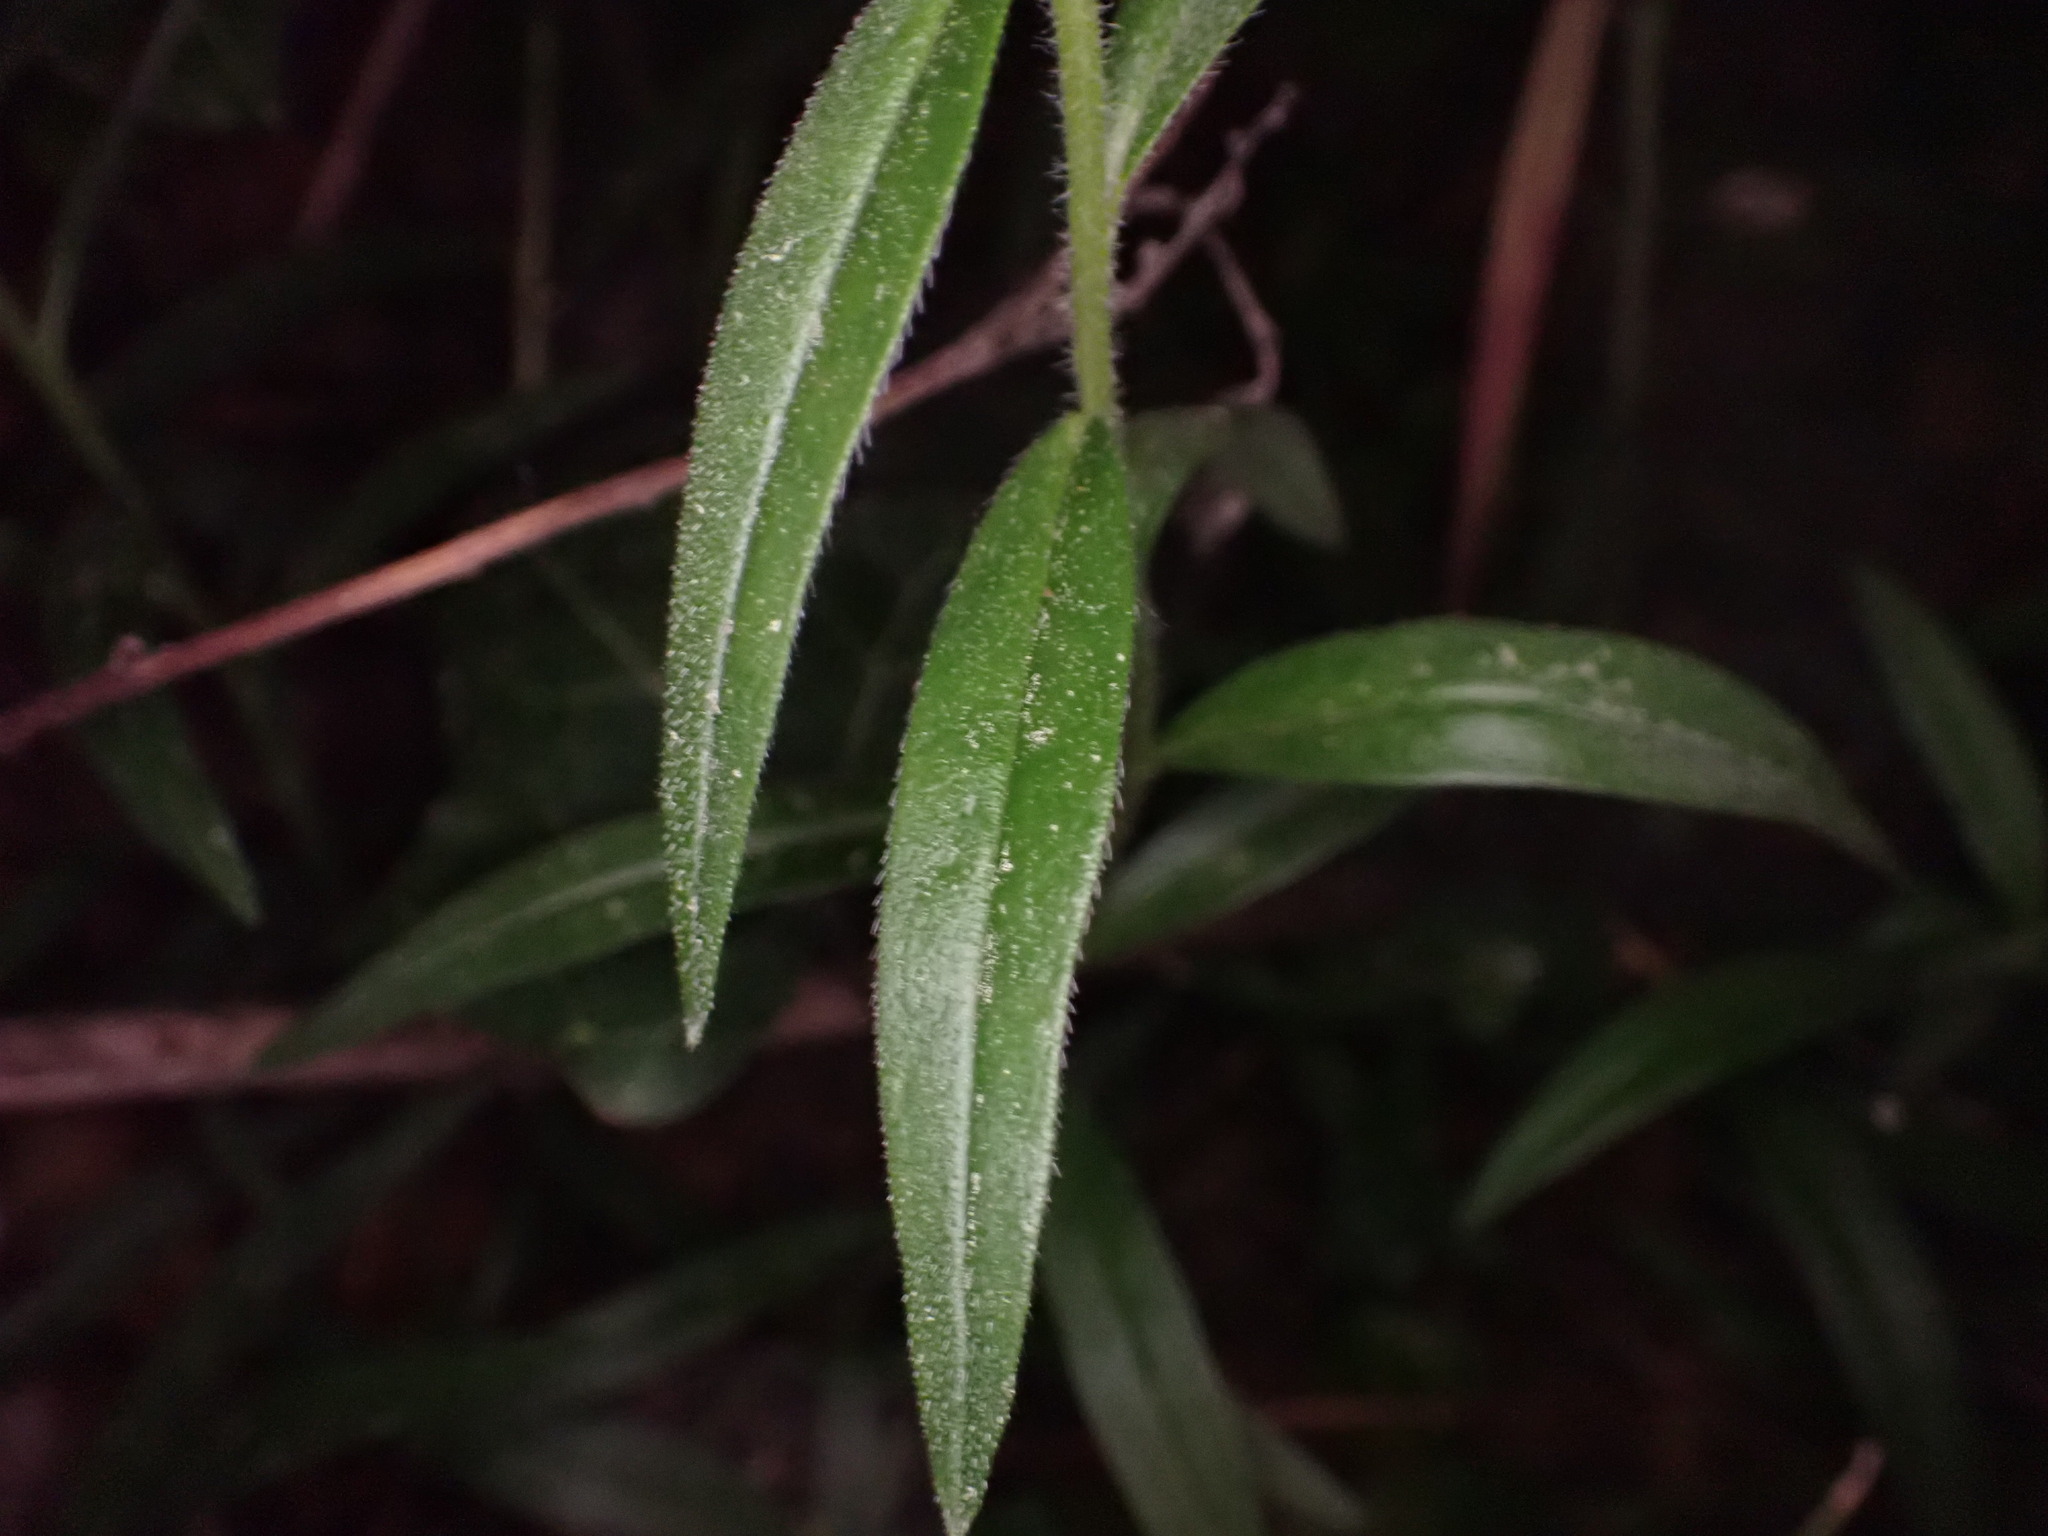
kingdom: Plantae
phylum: Tracheophyta
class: Magnoliopsida
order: Boraginales
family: Boraginaceae
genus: Aegonychon
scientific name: Aegonychon purpurocaeruleum
